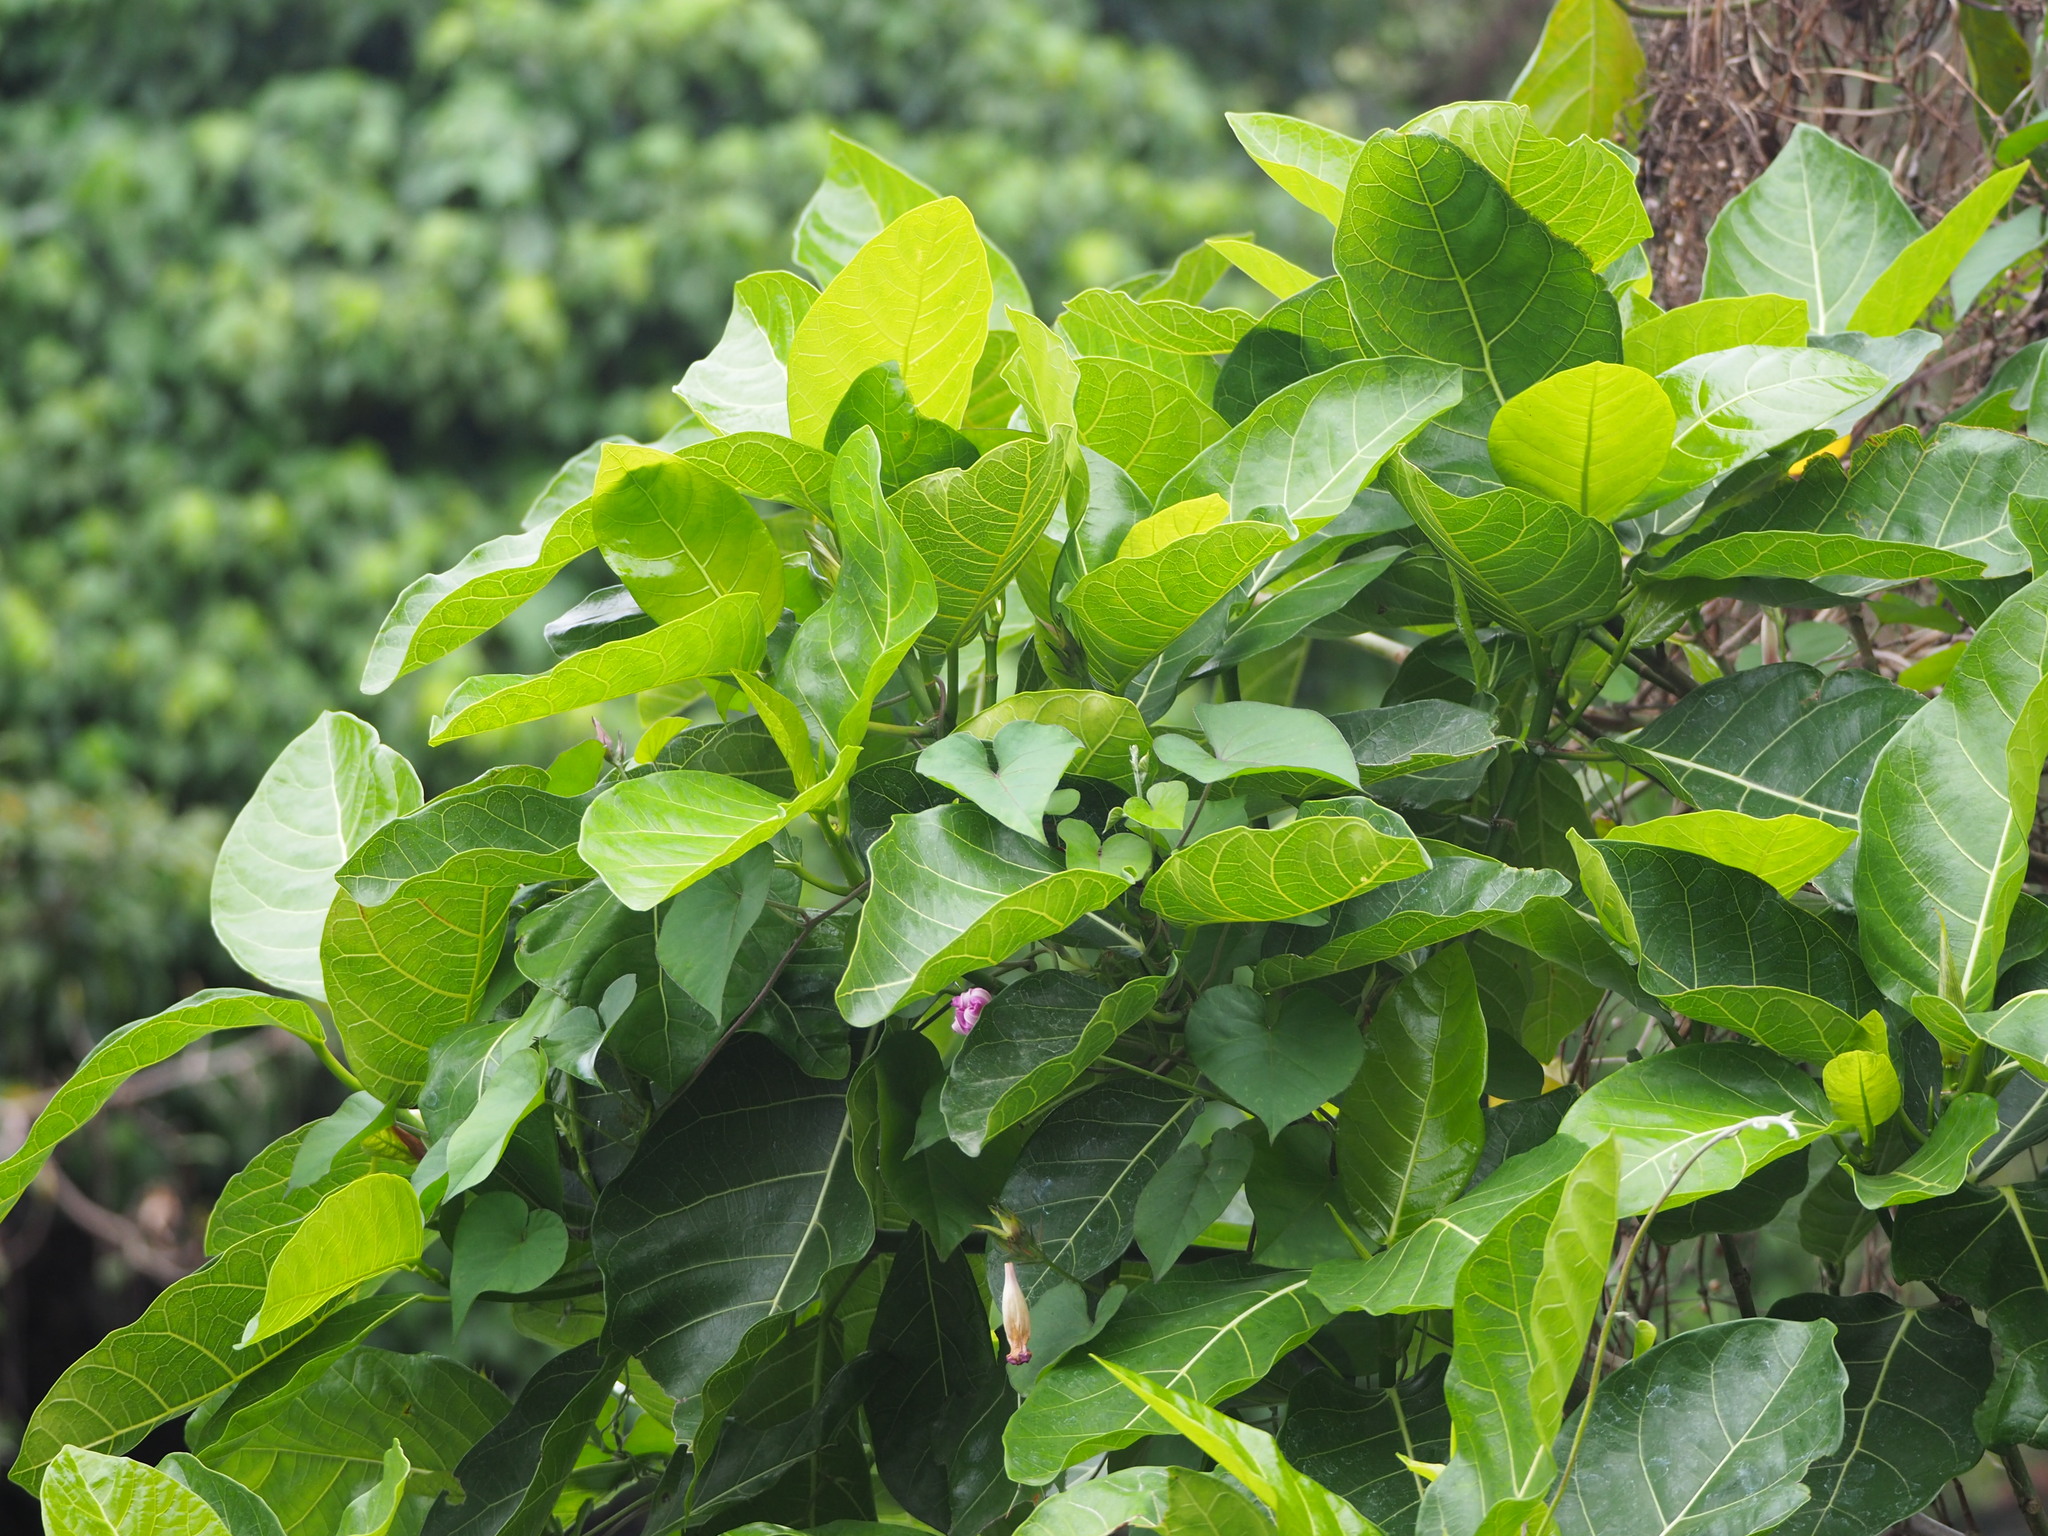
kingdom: Plantae
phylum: Tracheophyta
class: Magnoliopsida
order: Rosales
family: Moraceae
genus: Ficus
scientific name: Ficus septica
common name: Septic fig
